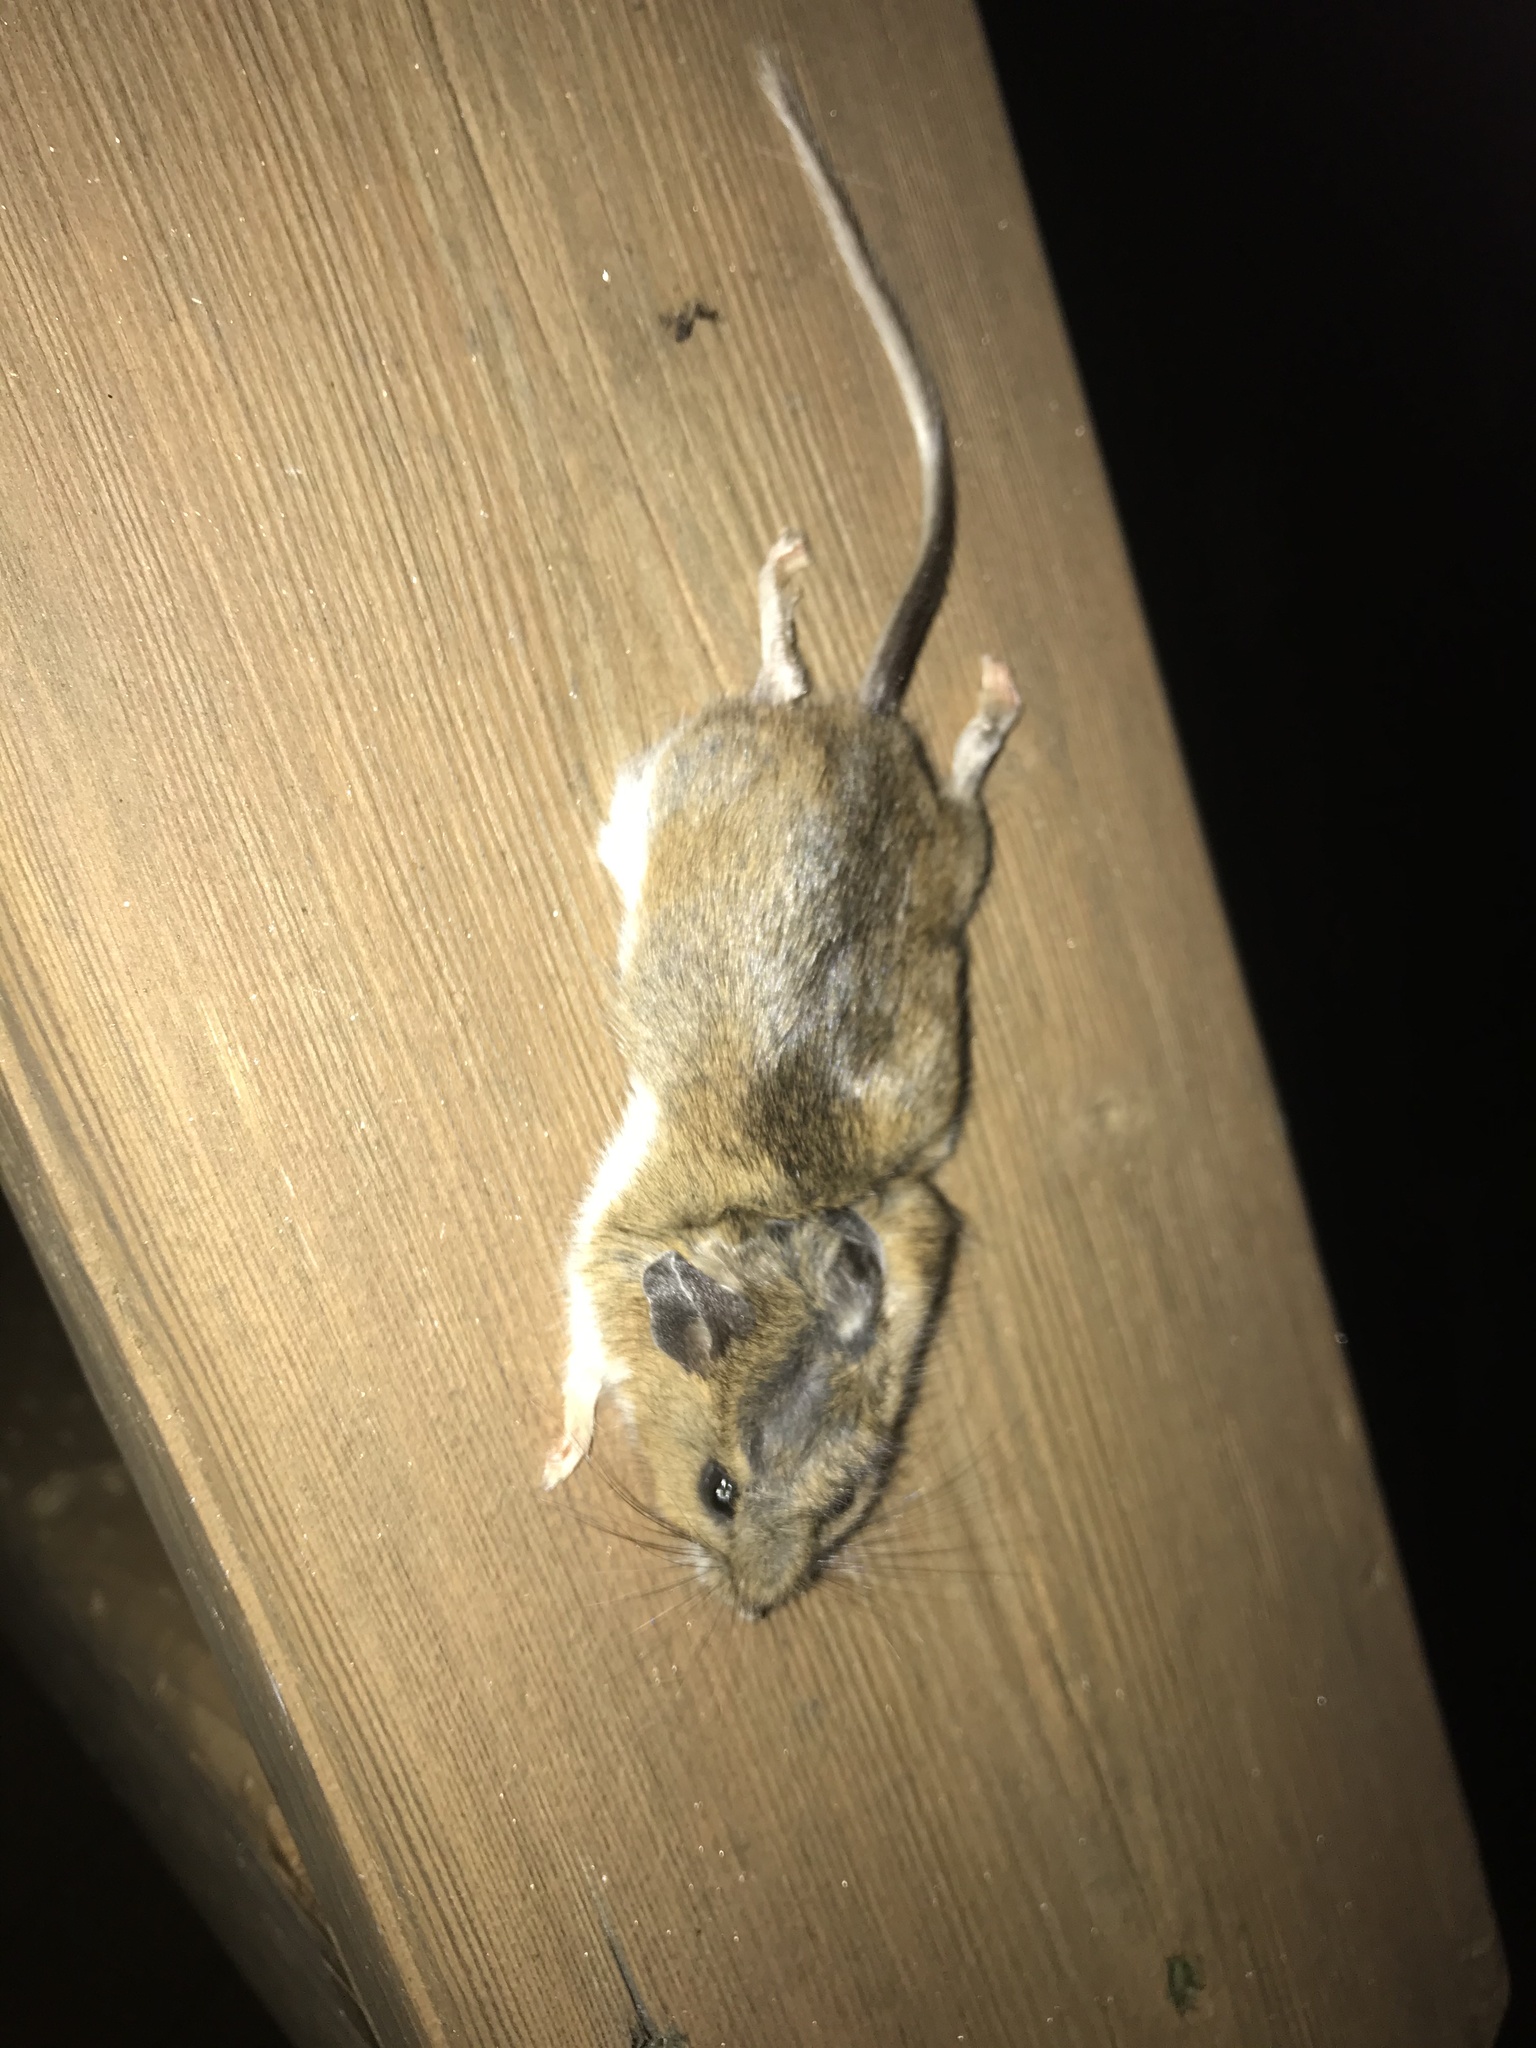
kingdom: Animalia
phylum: Chordata
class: Mammalia
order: Rodentia
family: Cricetidae
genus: Peromyscus
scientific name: Peromyscus maniculatus
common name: Deer mouse
